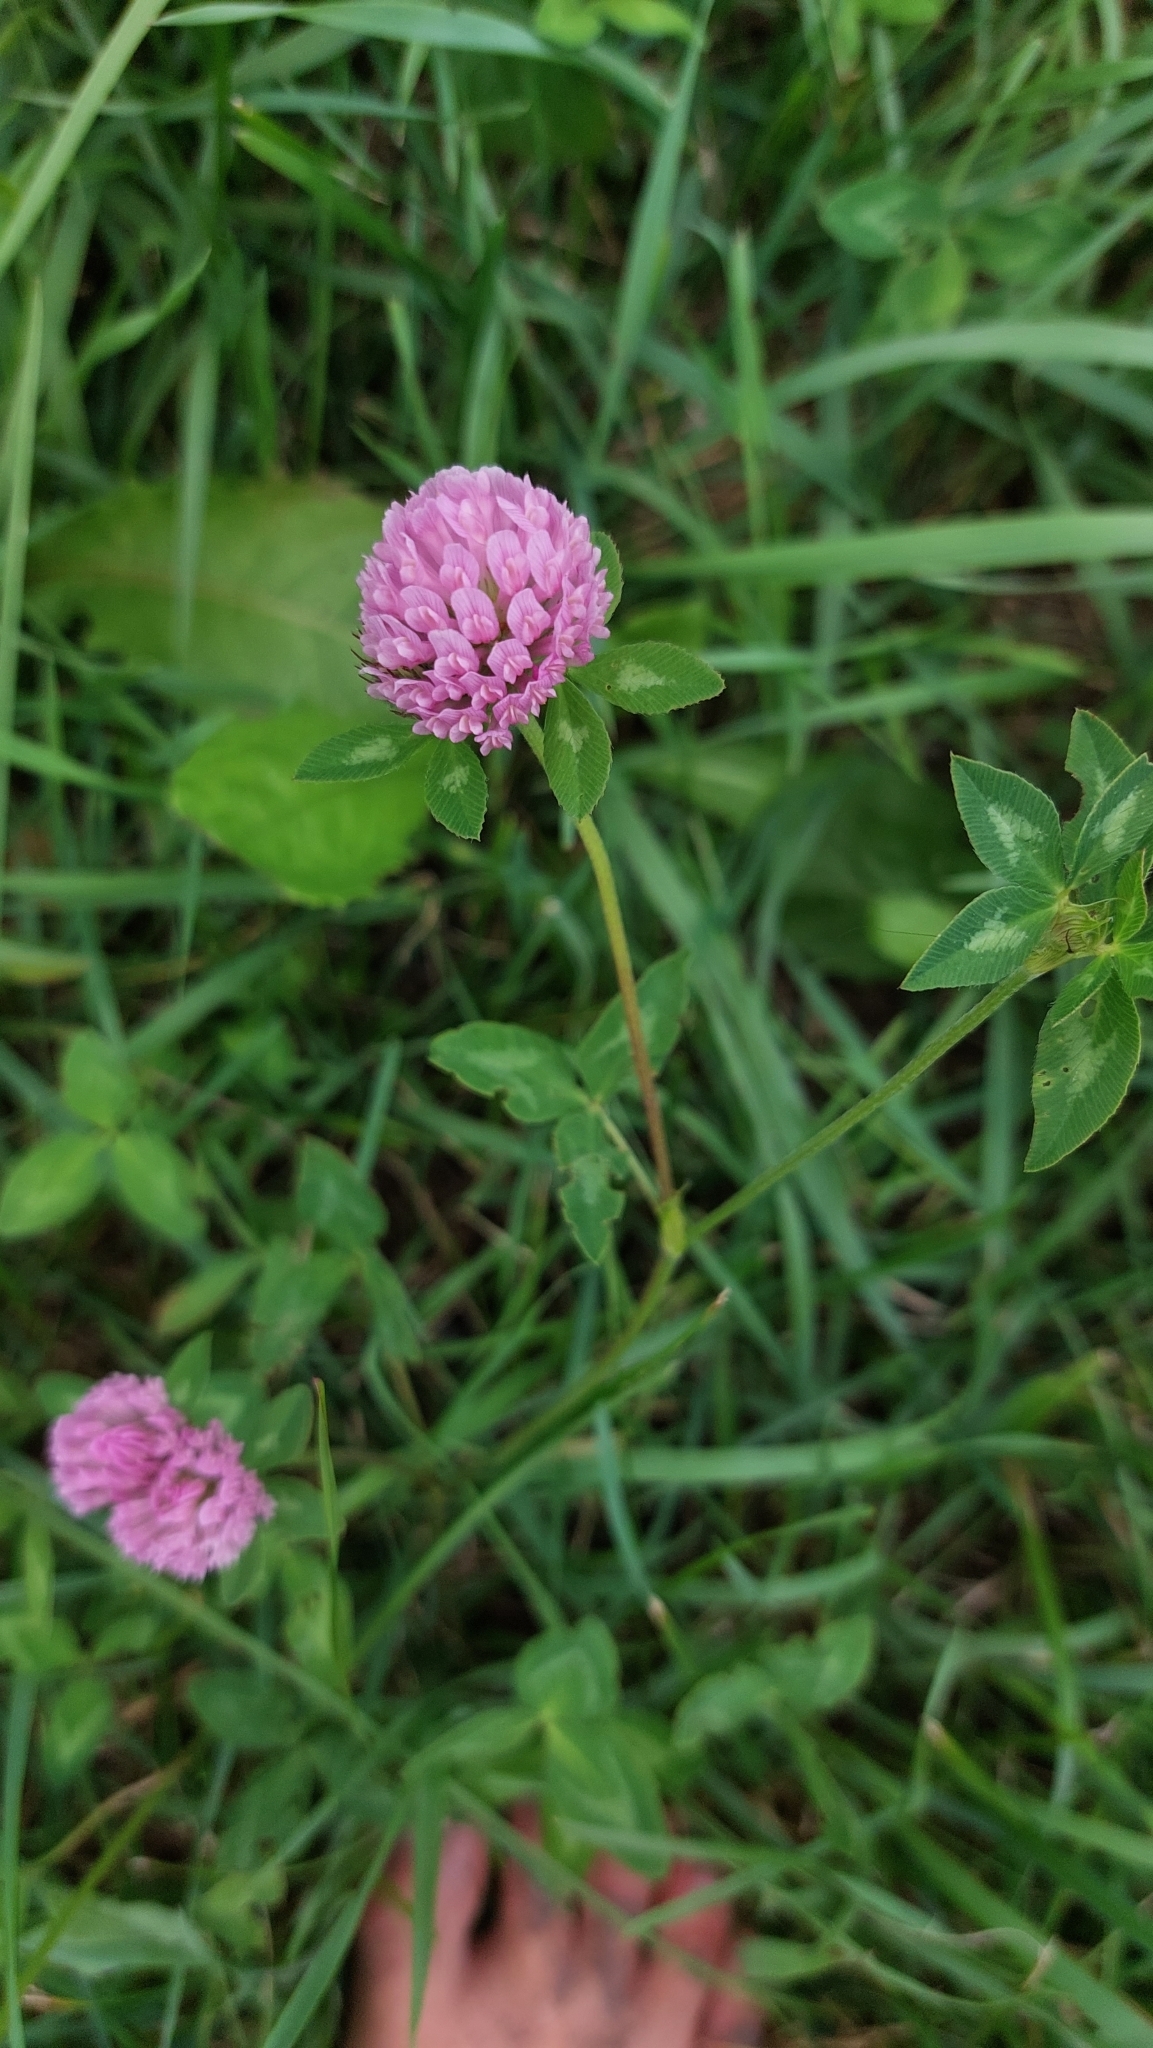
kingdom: Plantae
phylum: Tracheophyta
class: Magnoliopsida
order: Fabales
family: Fabaceae
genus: Trifolium
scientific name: Trifolium pratense
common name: Red clover
